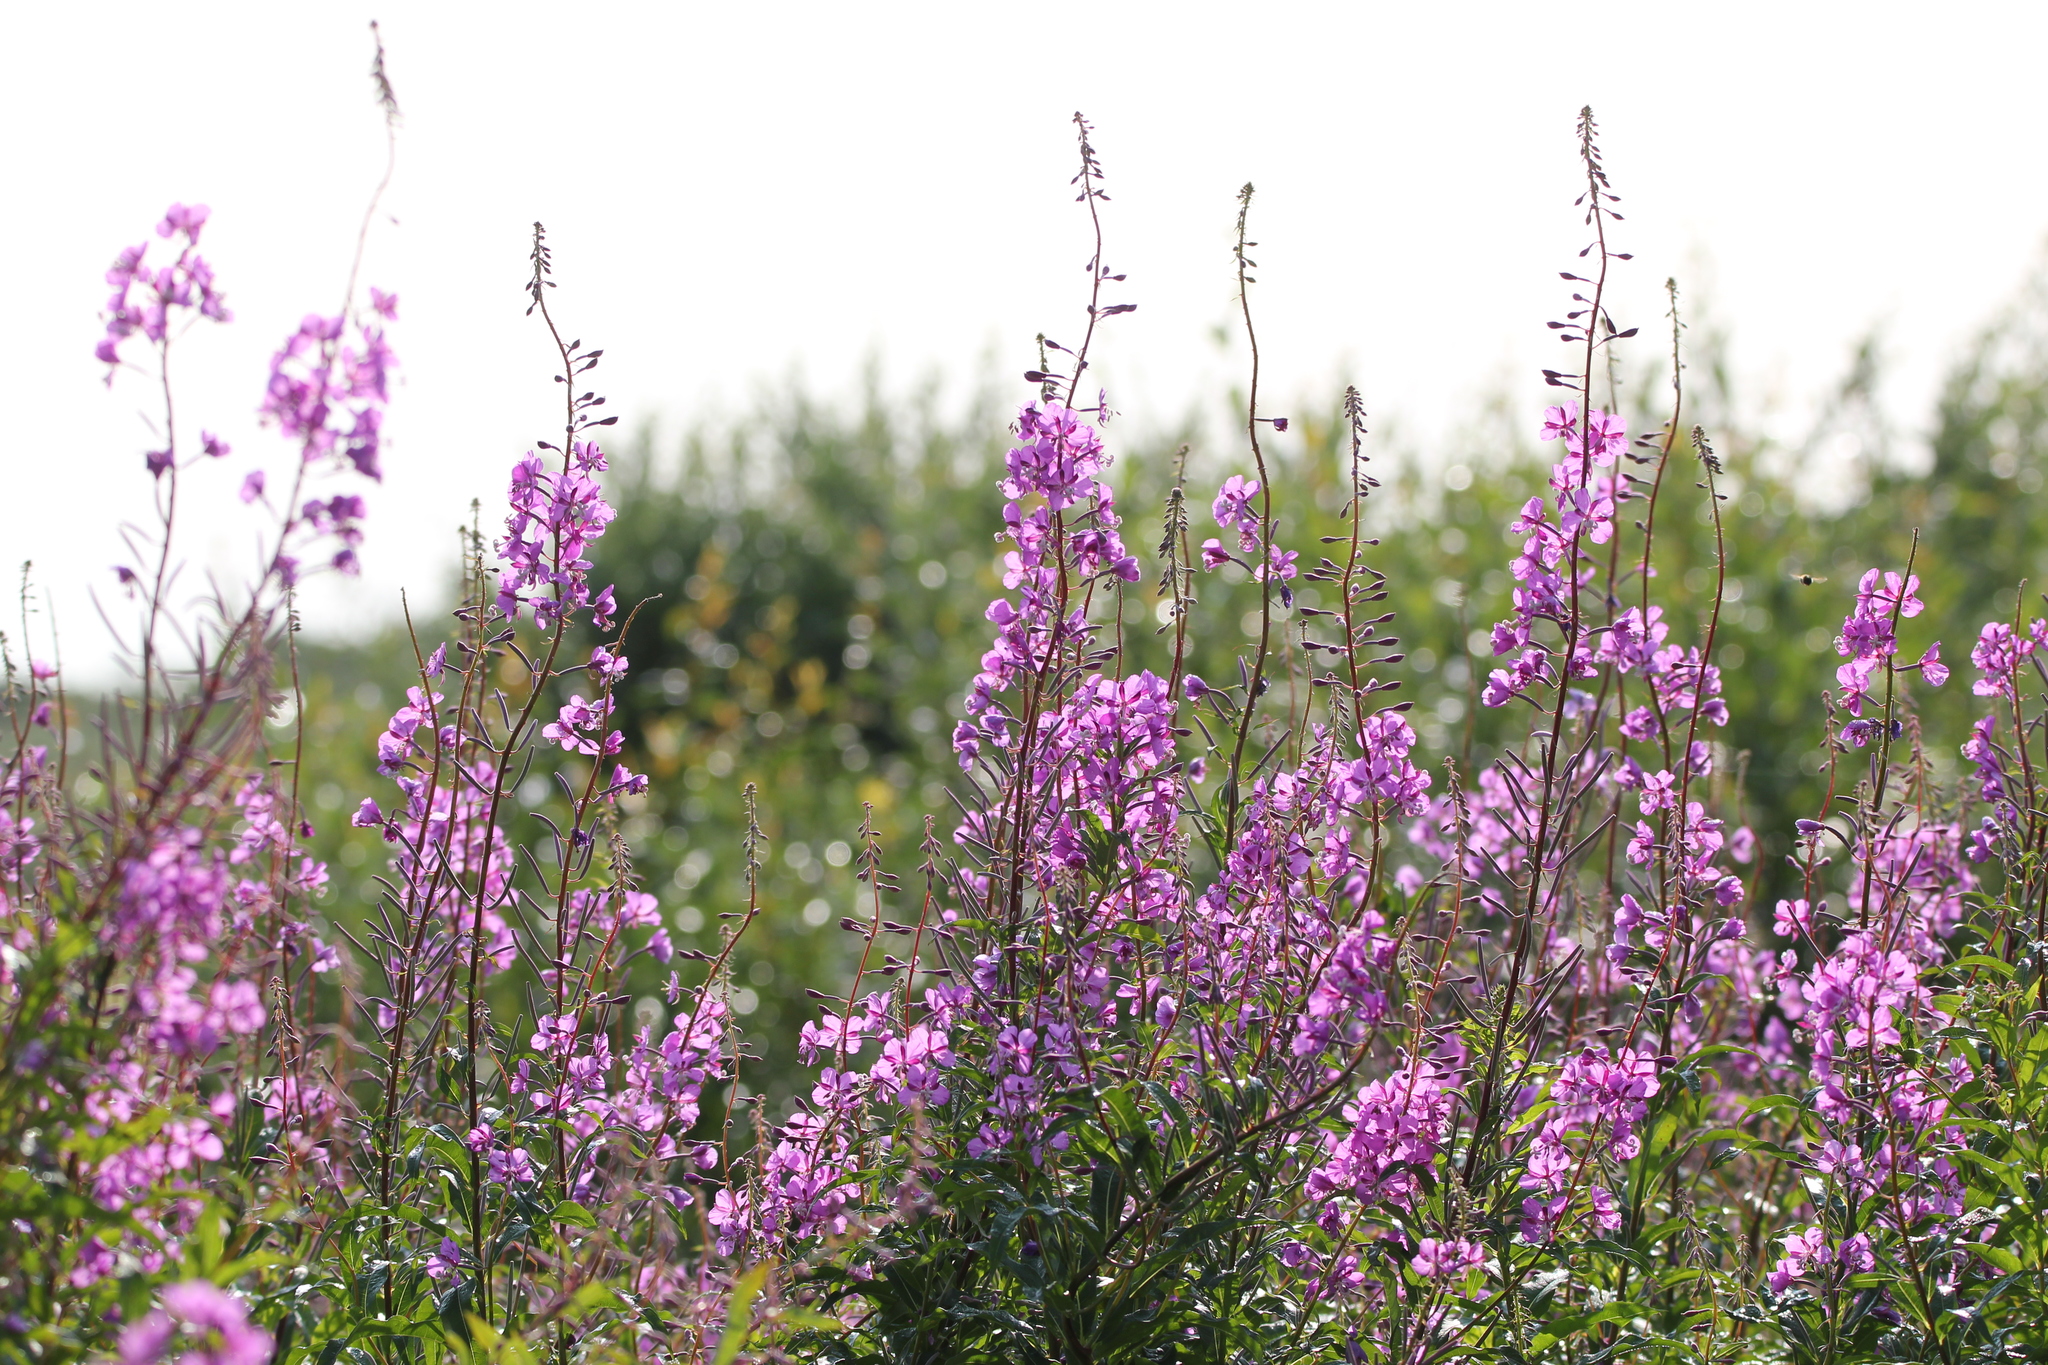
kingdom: Plantae
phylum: Tracheophyta
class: Magnoliopsida
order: Myrtales
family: Onagraceae
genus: Chamaenerion
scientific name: Chamaenerion angustifolium
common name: Fireweed
